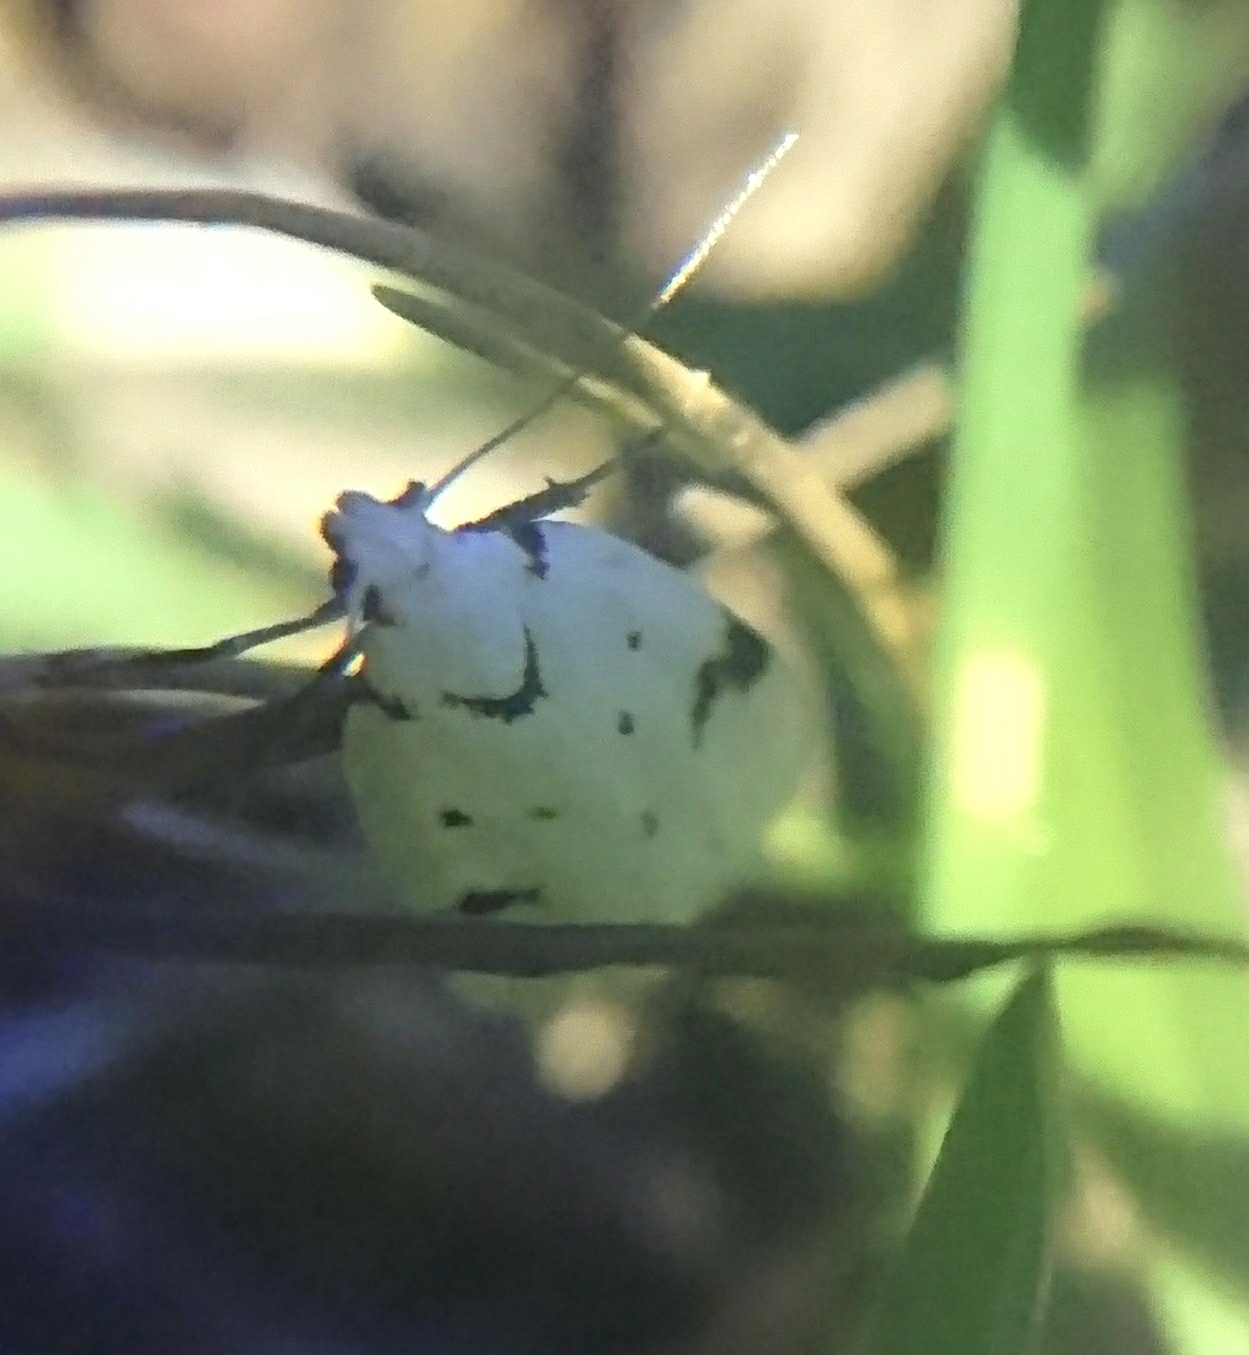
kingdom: Animalia
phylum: Arthropoda
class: Insecta
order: Lepidoptera
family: Oecophoridae
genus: Inga
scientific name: Inga sparsiciliella
